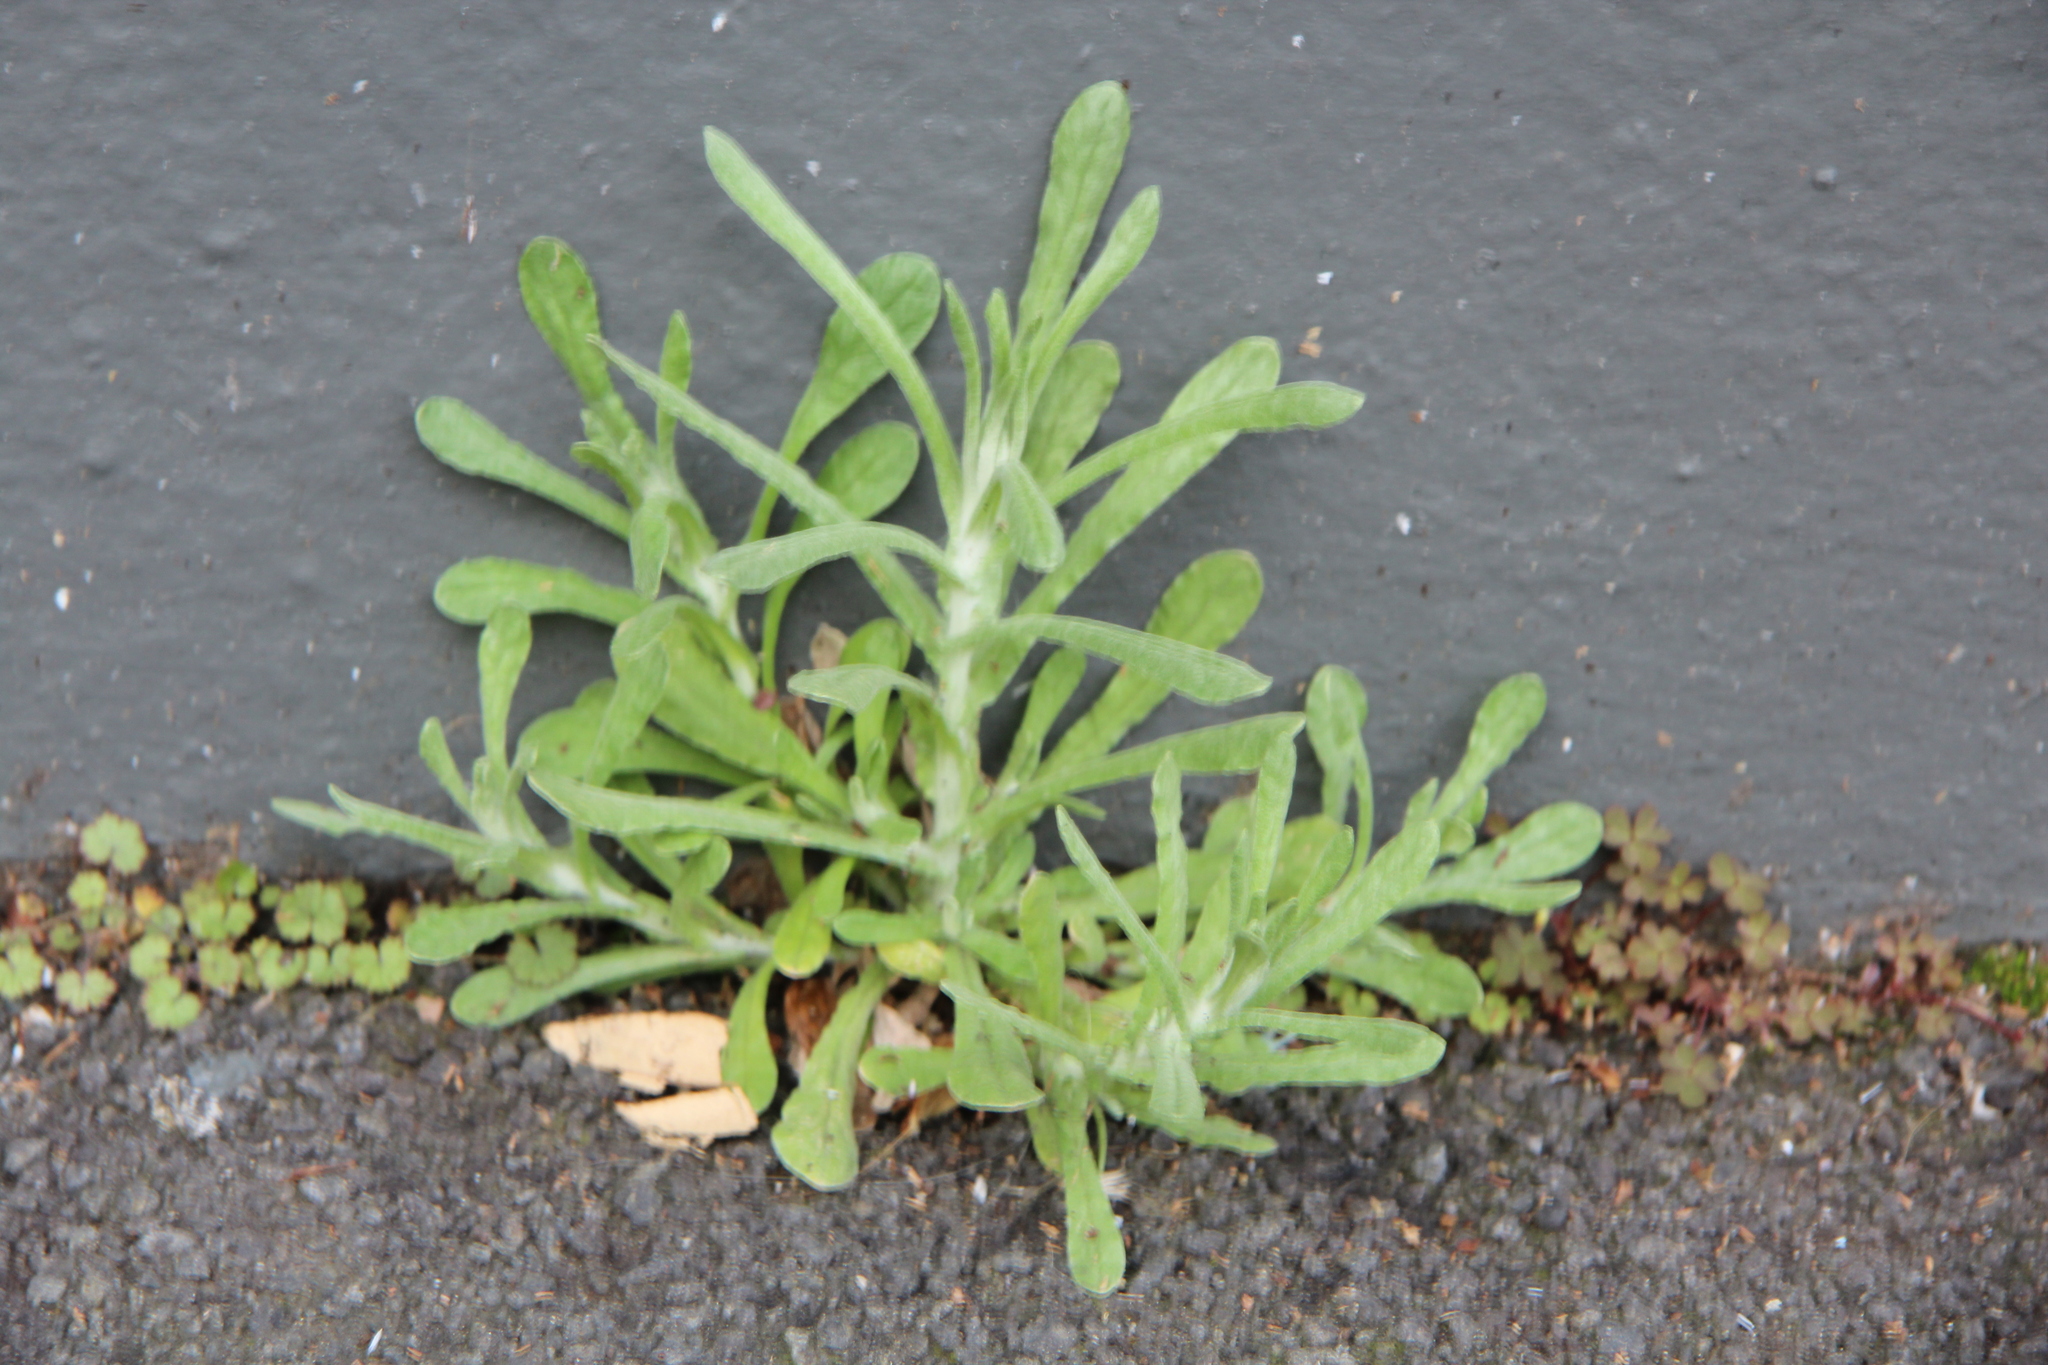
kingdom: Plantae
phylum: Tracheophyta
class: Magnoliopsida
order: Asterales
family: Asteraceae
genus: Helichrysum
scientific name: Helichrysum luteoalbum
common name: Daisy
